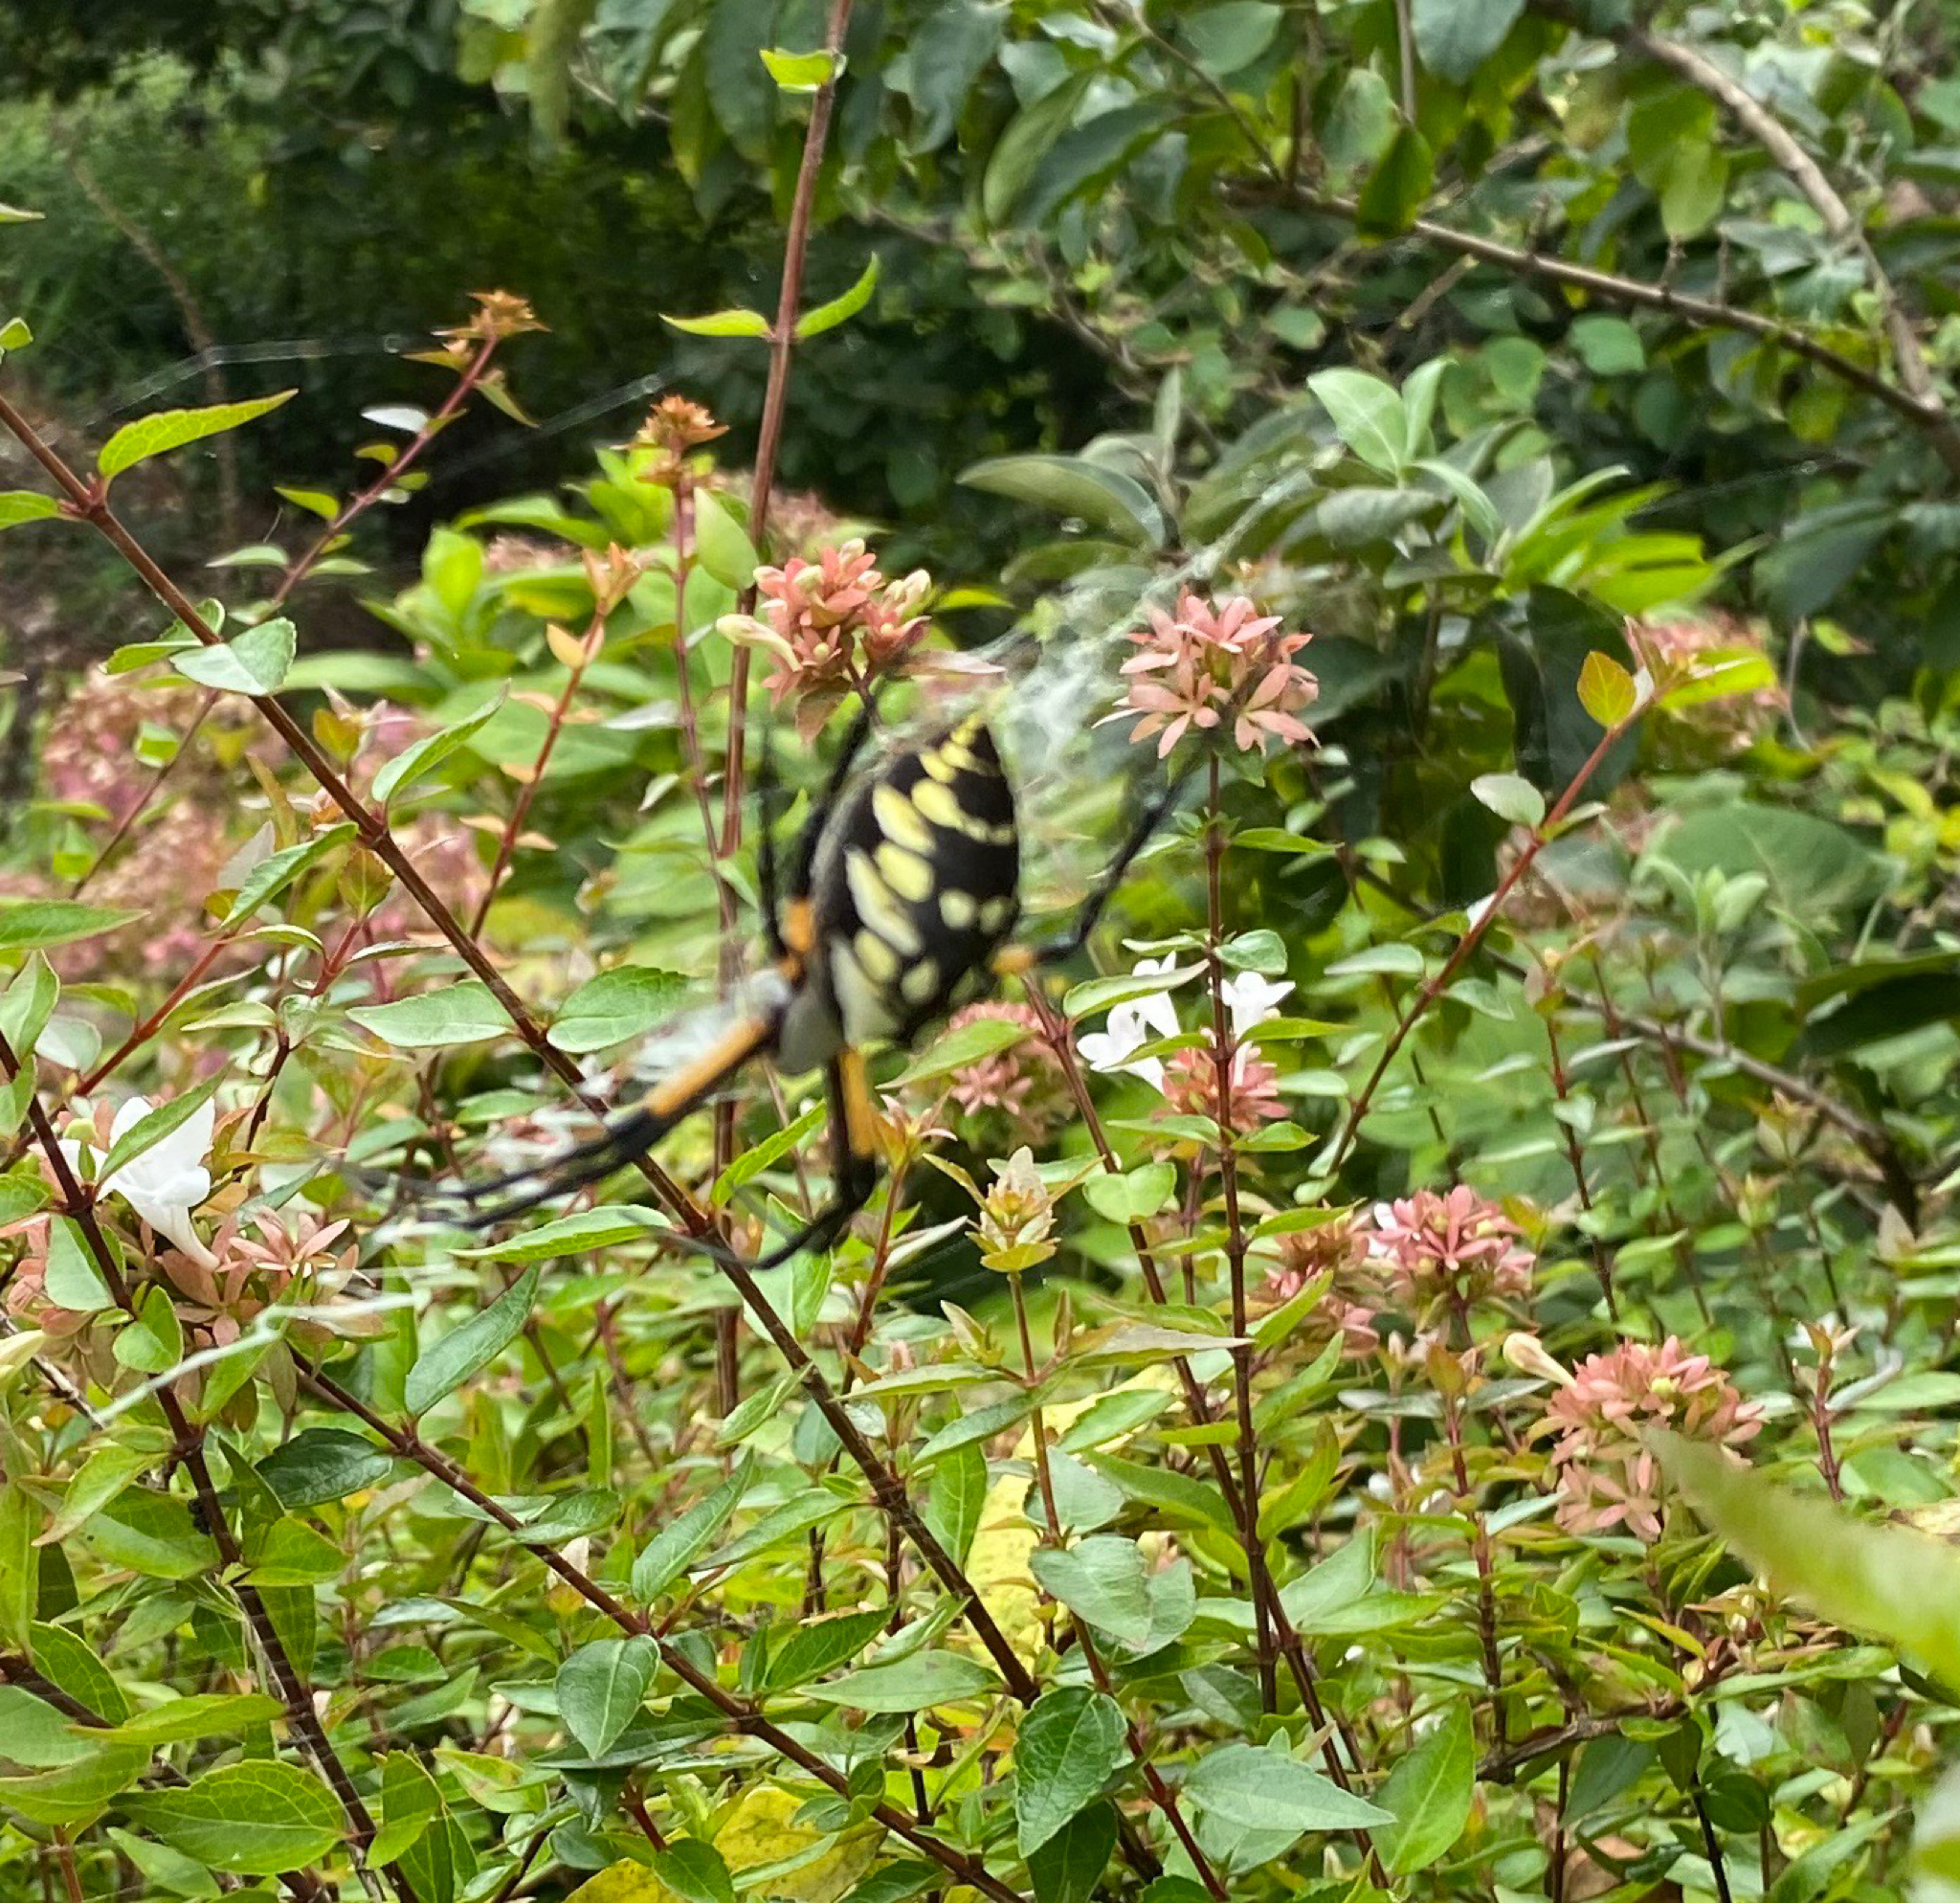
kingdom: Animalia
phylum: Arthropoda
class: Arachnida
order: Araneae
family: Araneidae
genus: Argiope
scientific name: Argiope aurantia
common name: Orb weavers
